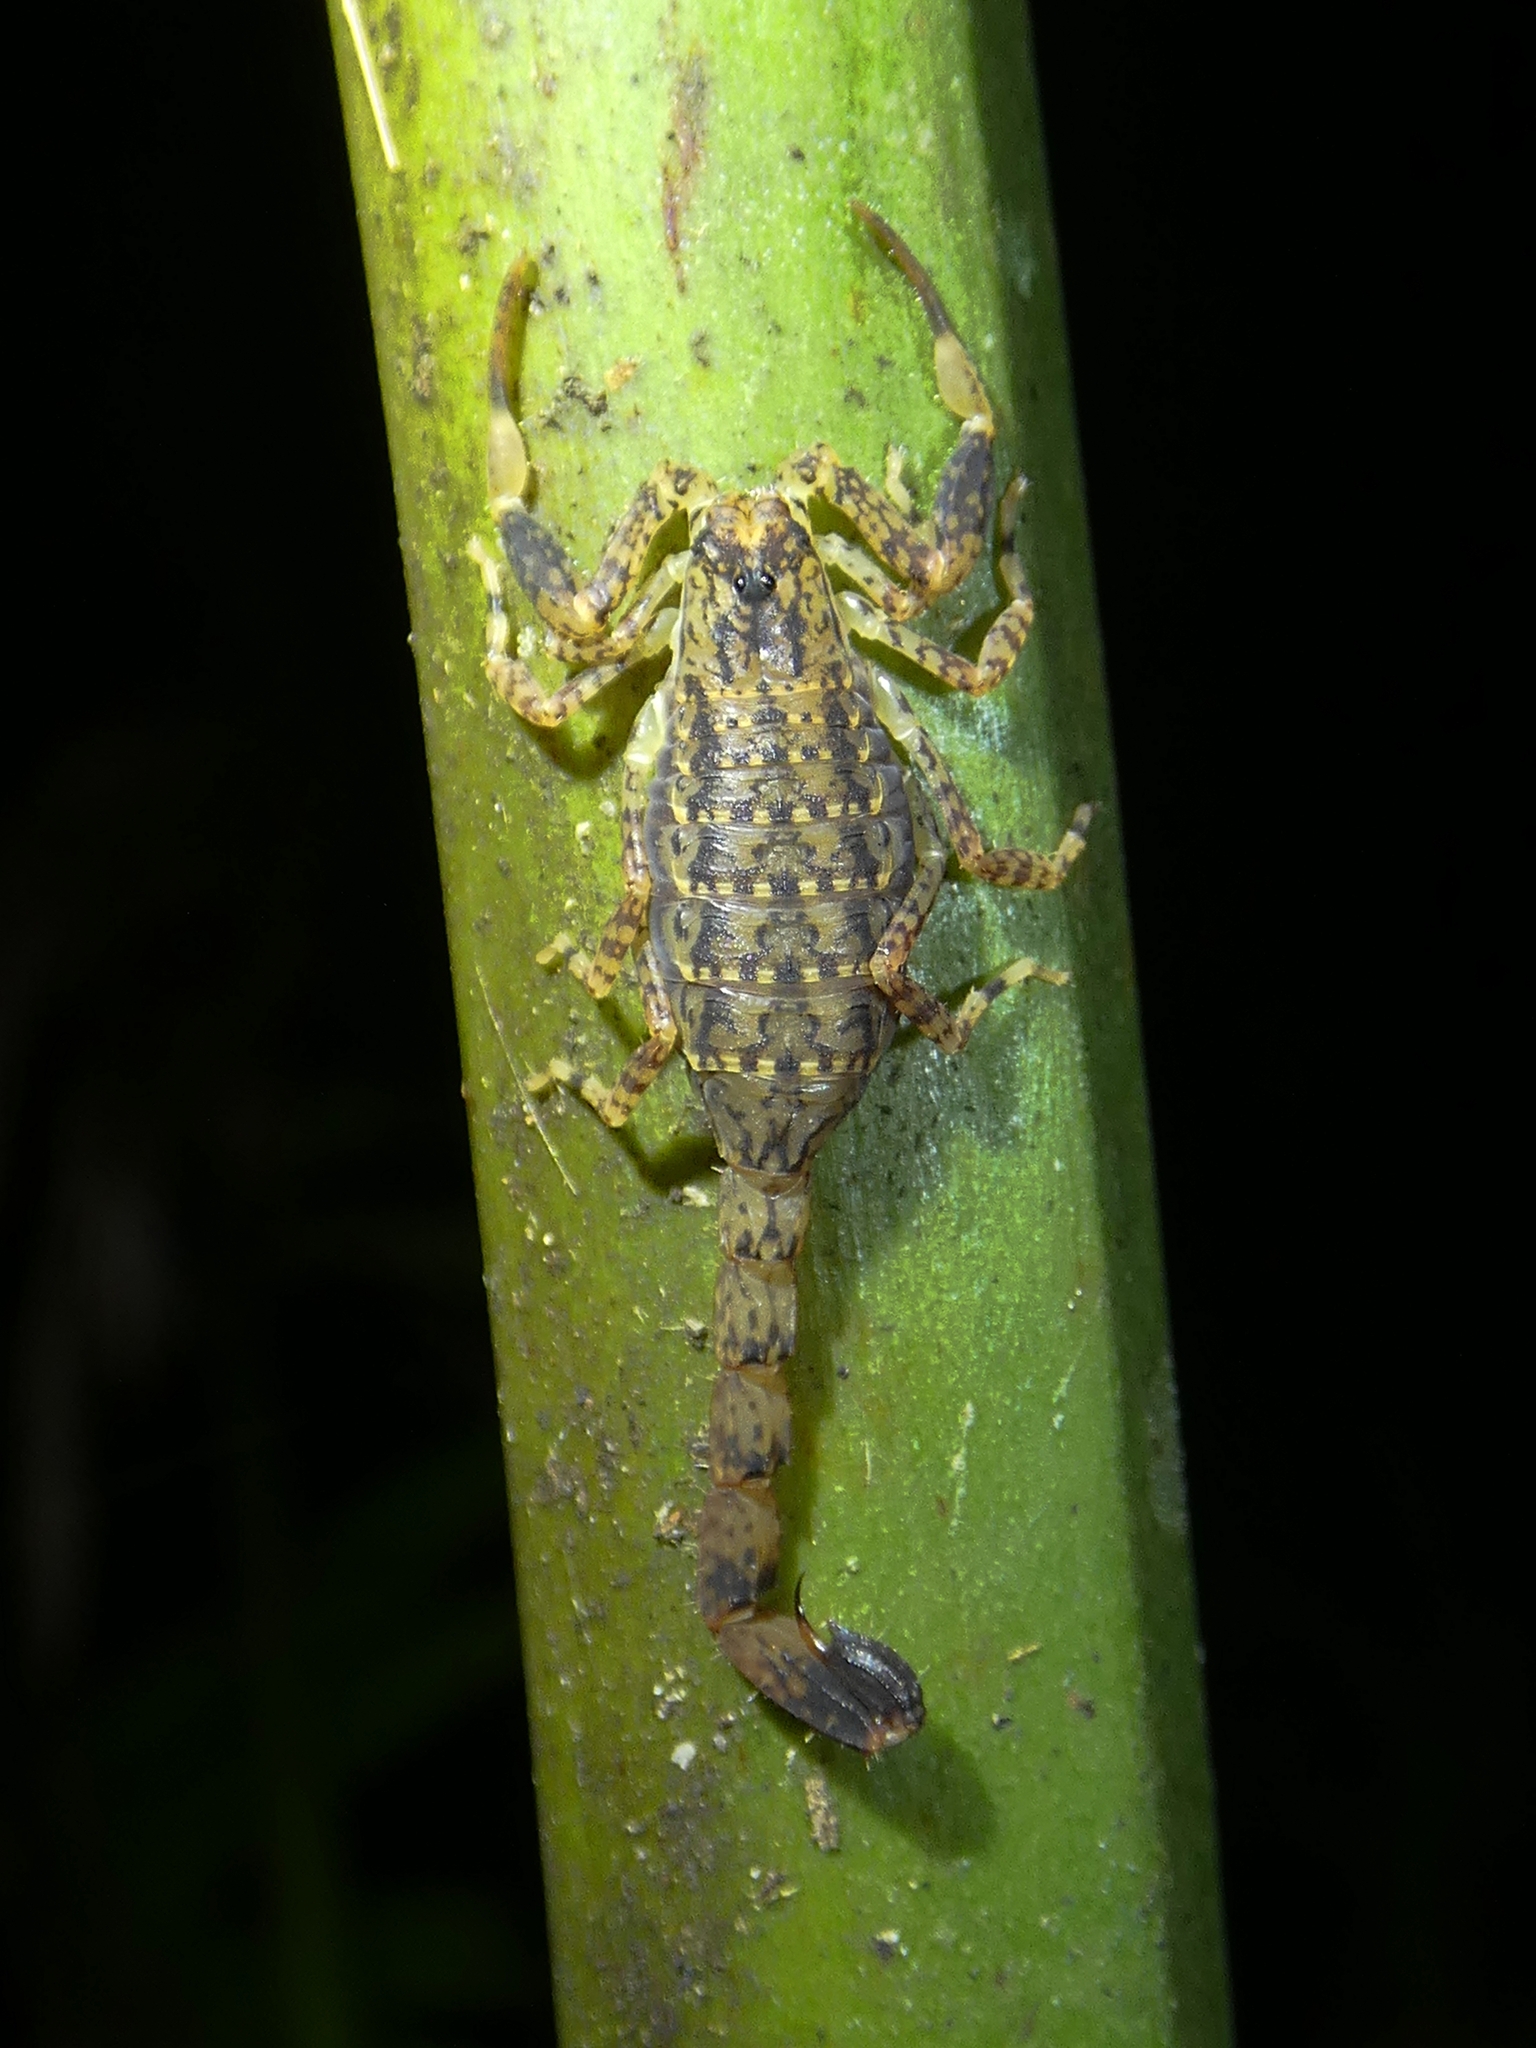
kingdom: Animalia
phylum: Arthropoda
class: Arachnida
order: Scorpiones
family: Buthidae
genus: Lychas
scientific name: Lychas variatus
